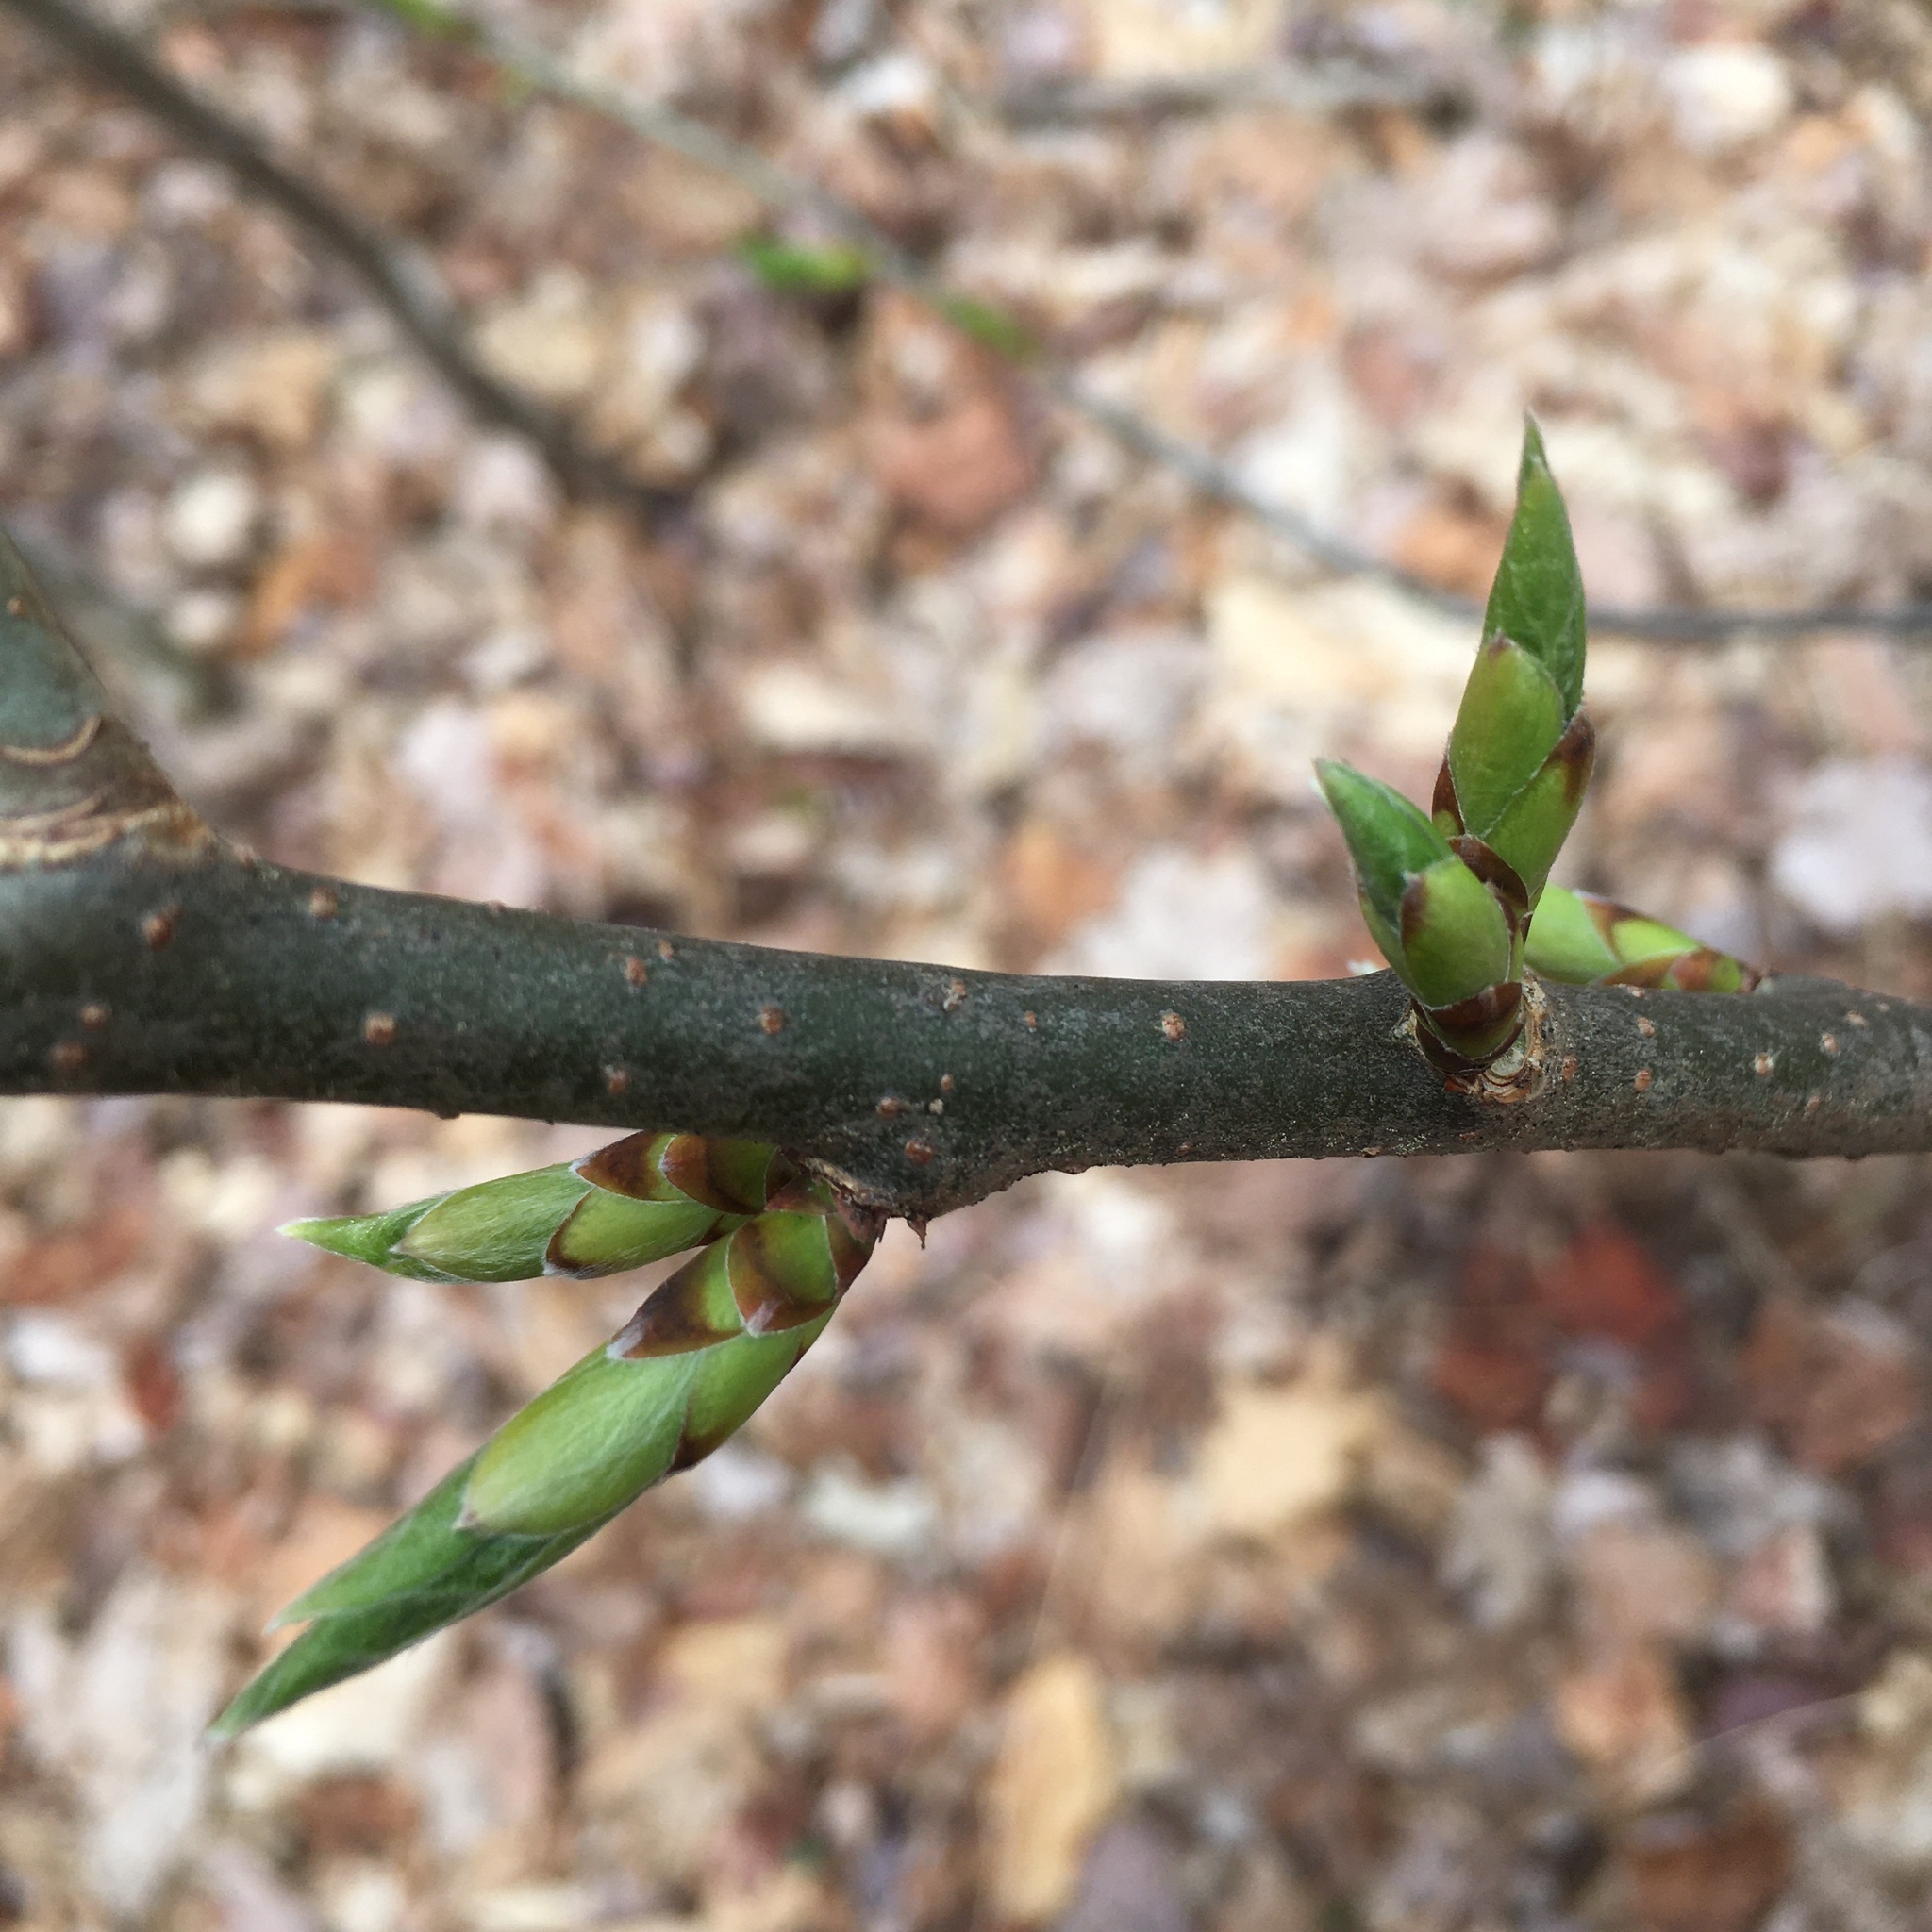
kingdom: Plantae
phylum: Tracheophyta
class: Magnoliopsida
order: Santalales
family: Cervantesiaceae
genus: Pyrularia
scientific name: Pyrularia pubera
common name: Oilnut
